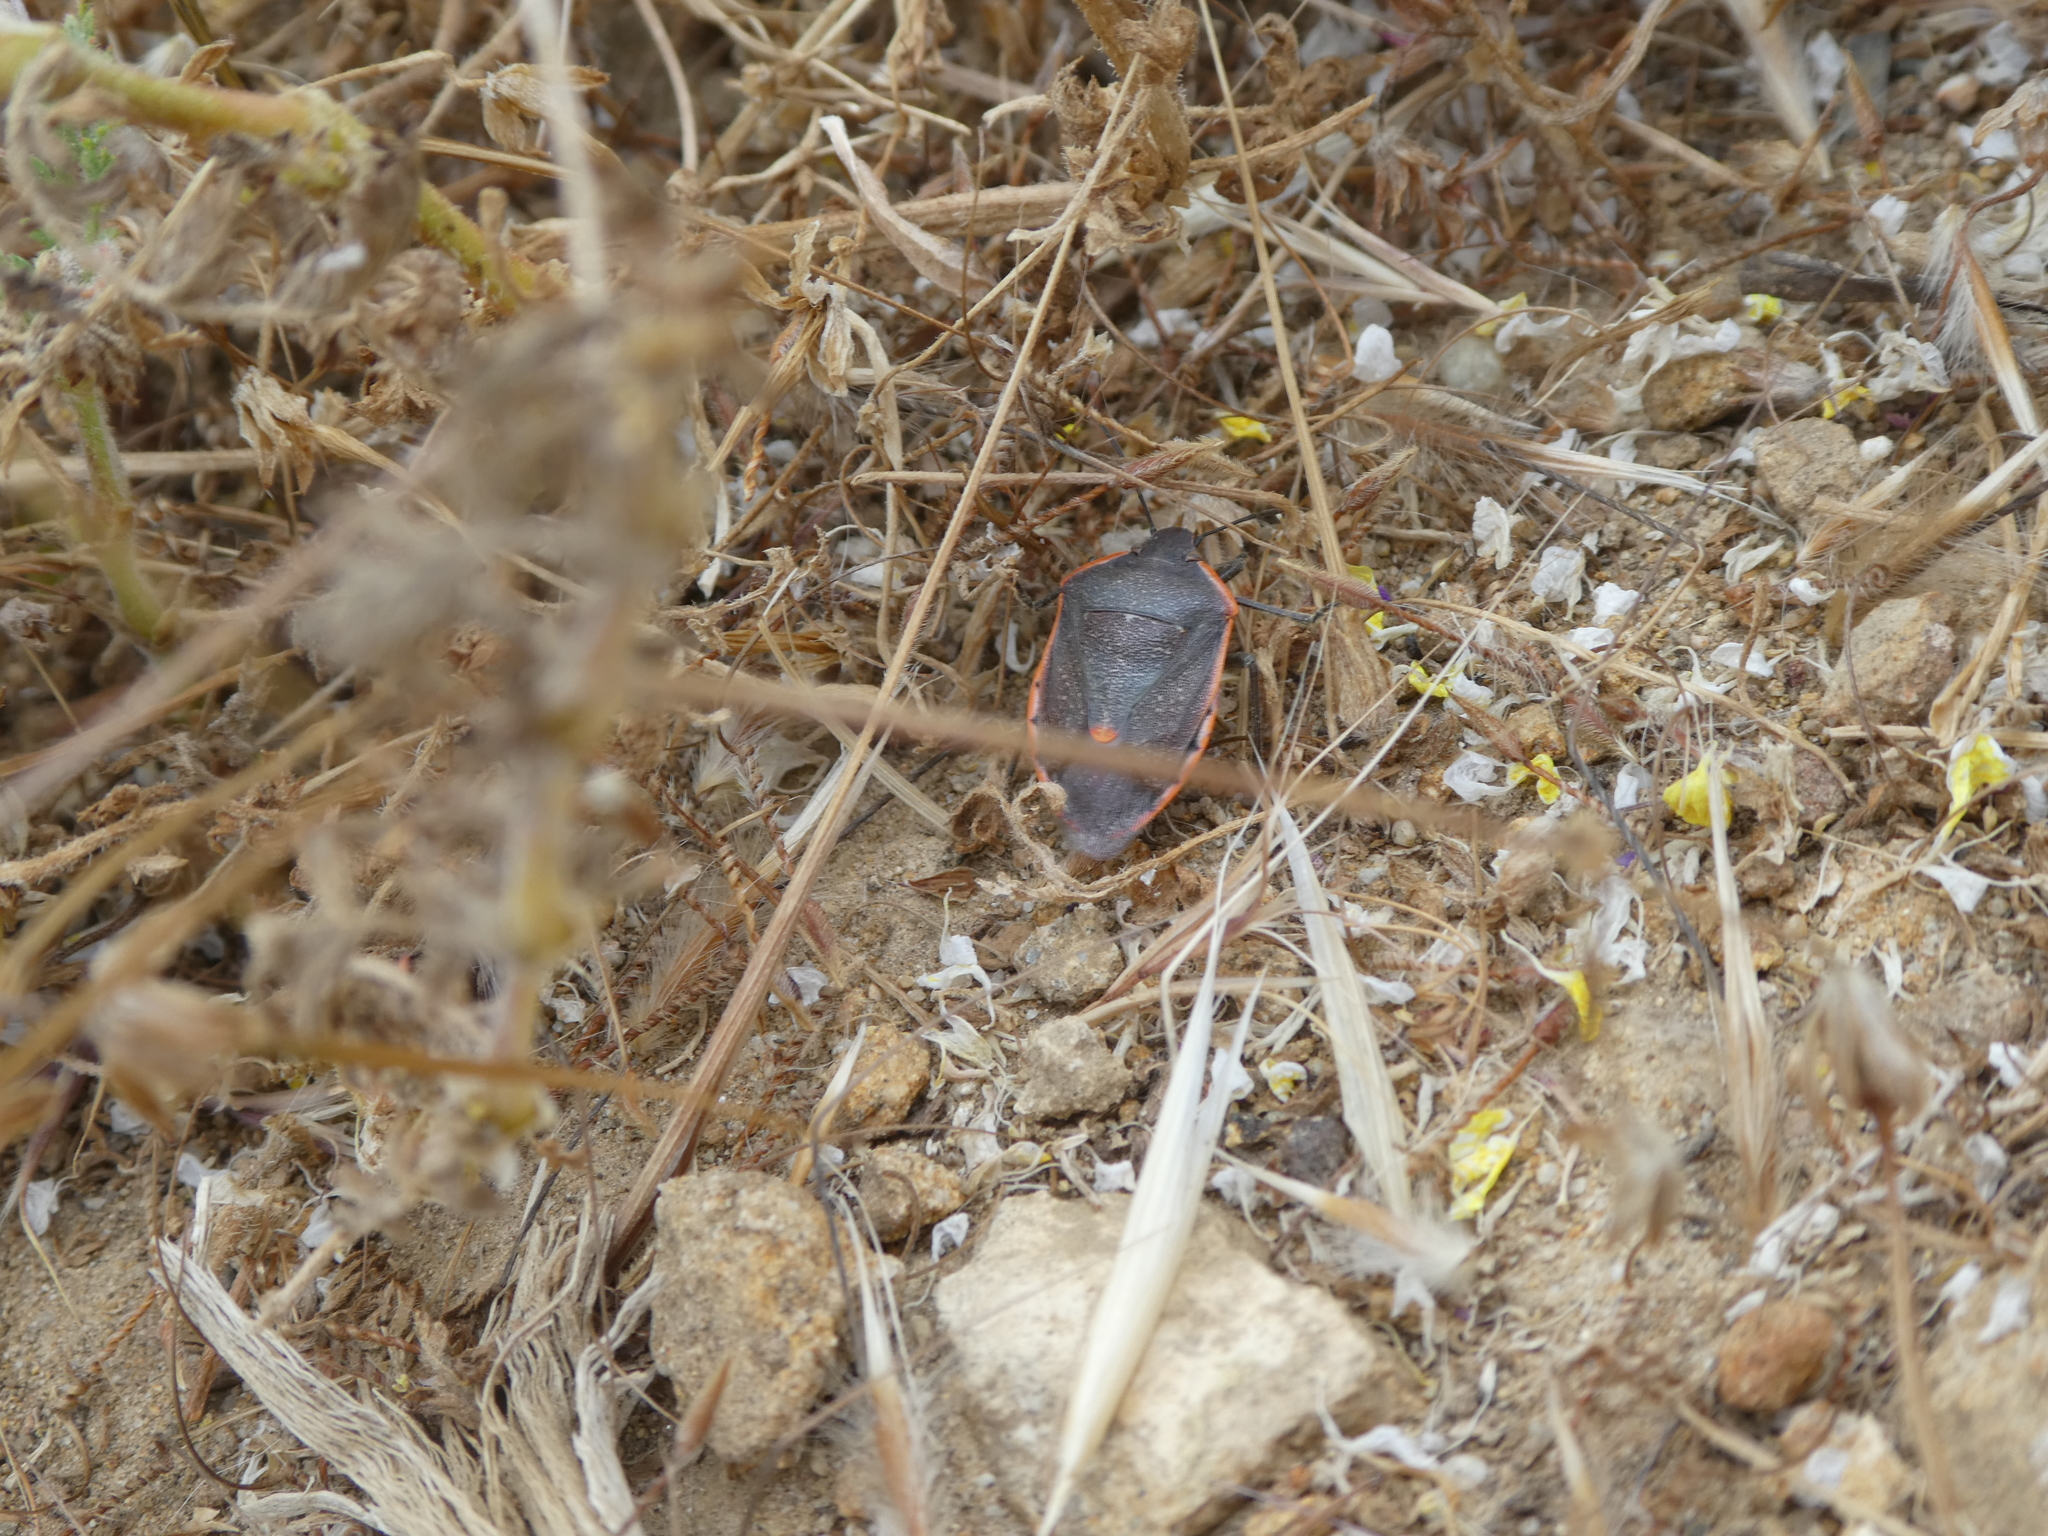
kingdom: Animalia
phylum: Arthropoda
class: Insecta
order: Hemiptera
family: Pentatomidae
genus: Chlorochroa
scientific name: Chlorochroa ligata
